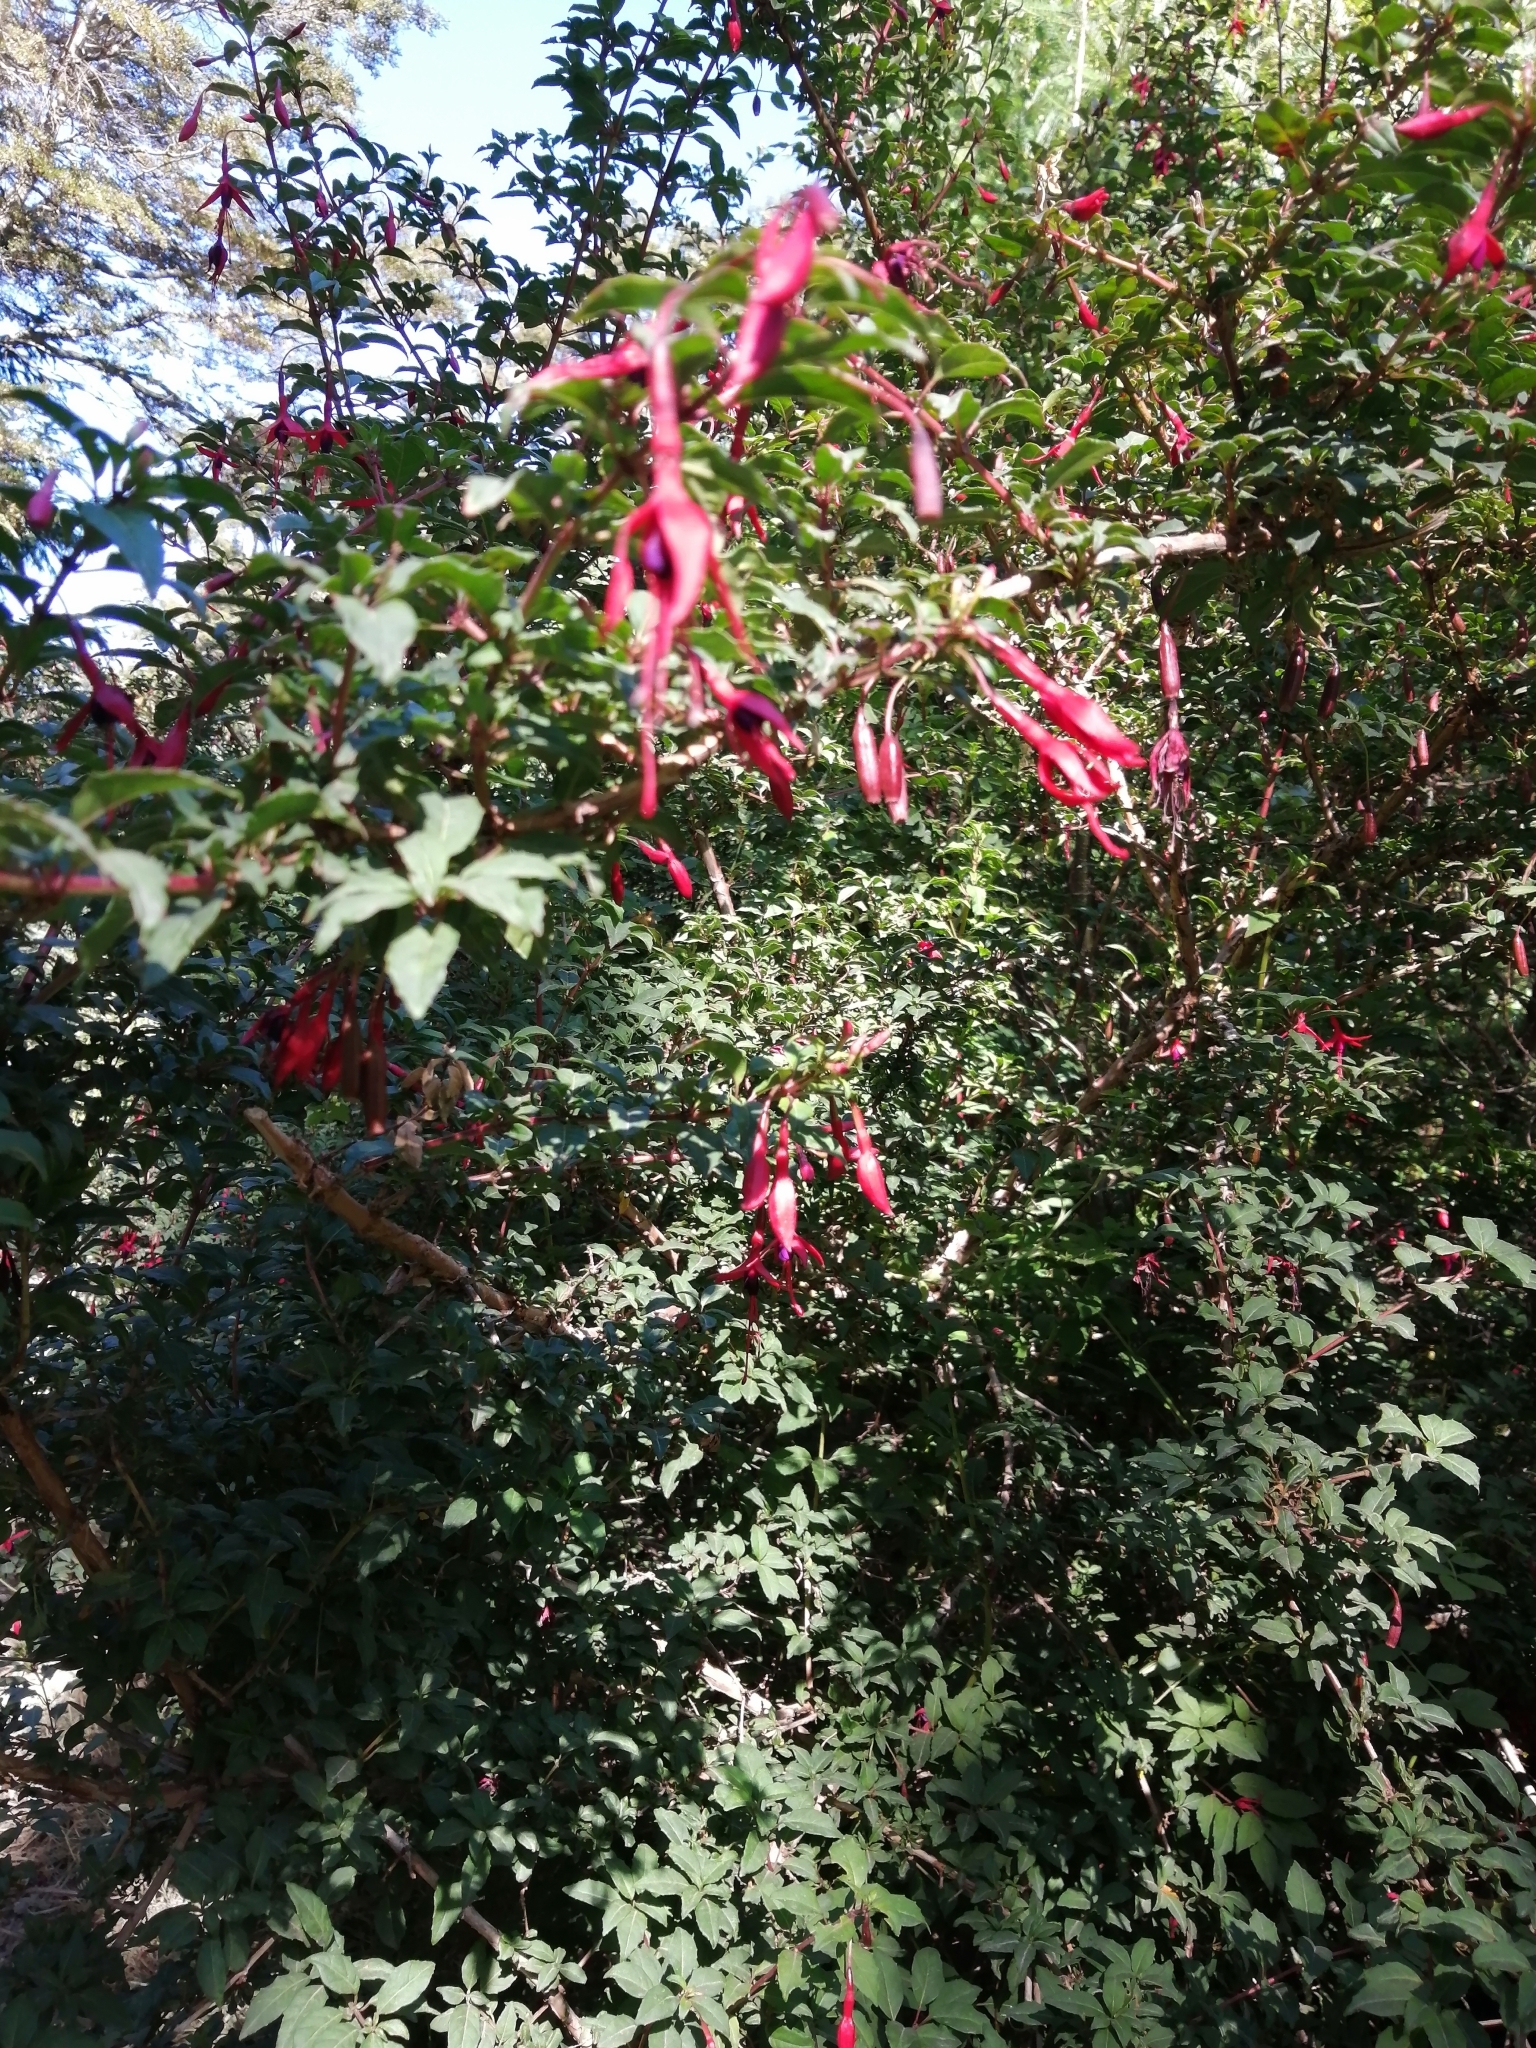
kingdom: Plantae
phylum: Tracheophyta
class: Magnoliopsida
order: Myrtales
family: Onagraceae
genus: Fuchsia
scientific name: Fuchsia magellanica
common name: Hardy fuchsia
